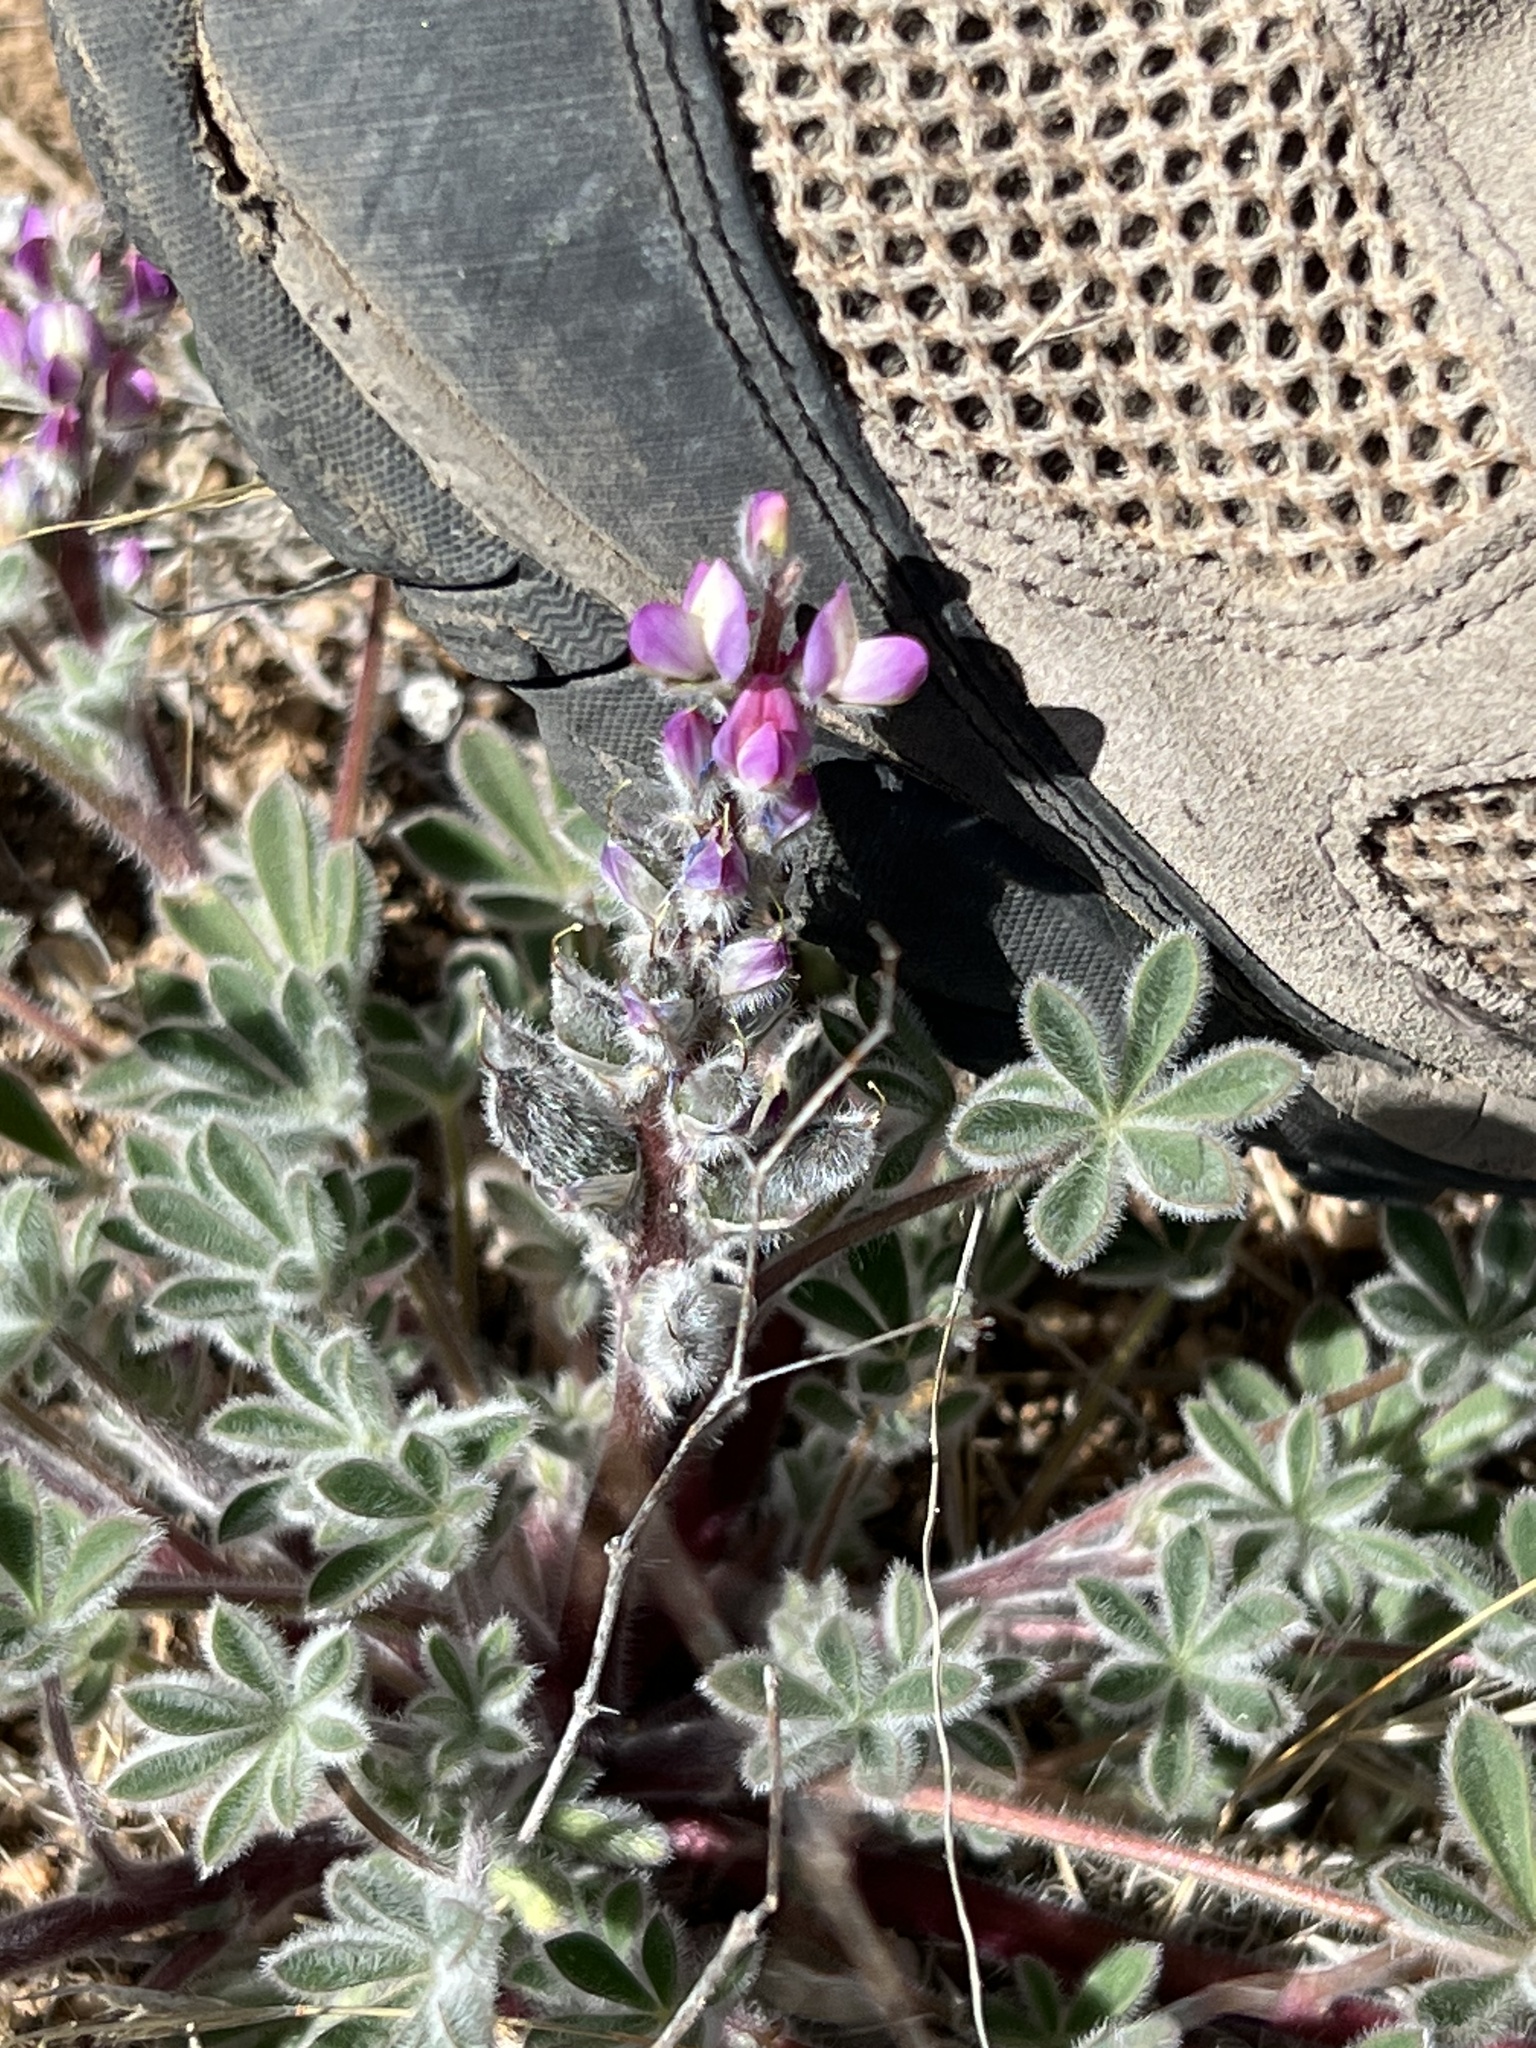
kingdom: Plantae
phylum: Tracheophyta
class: Magnoliopsida
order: Fabales
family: Fabaceae
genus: Lupinus
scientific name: Lupinus concinnus
